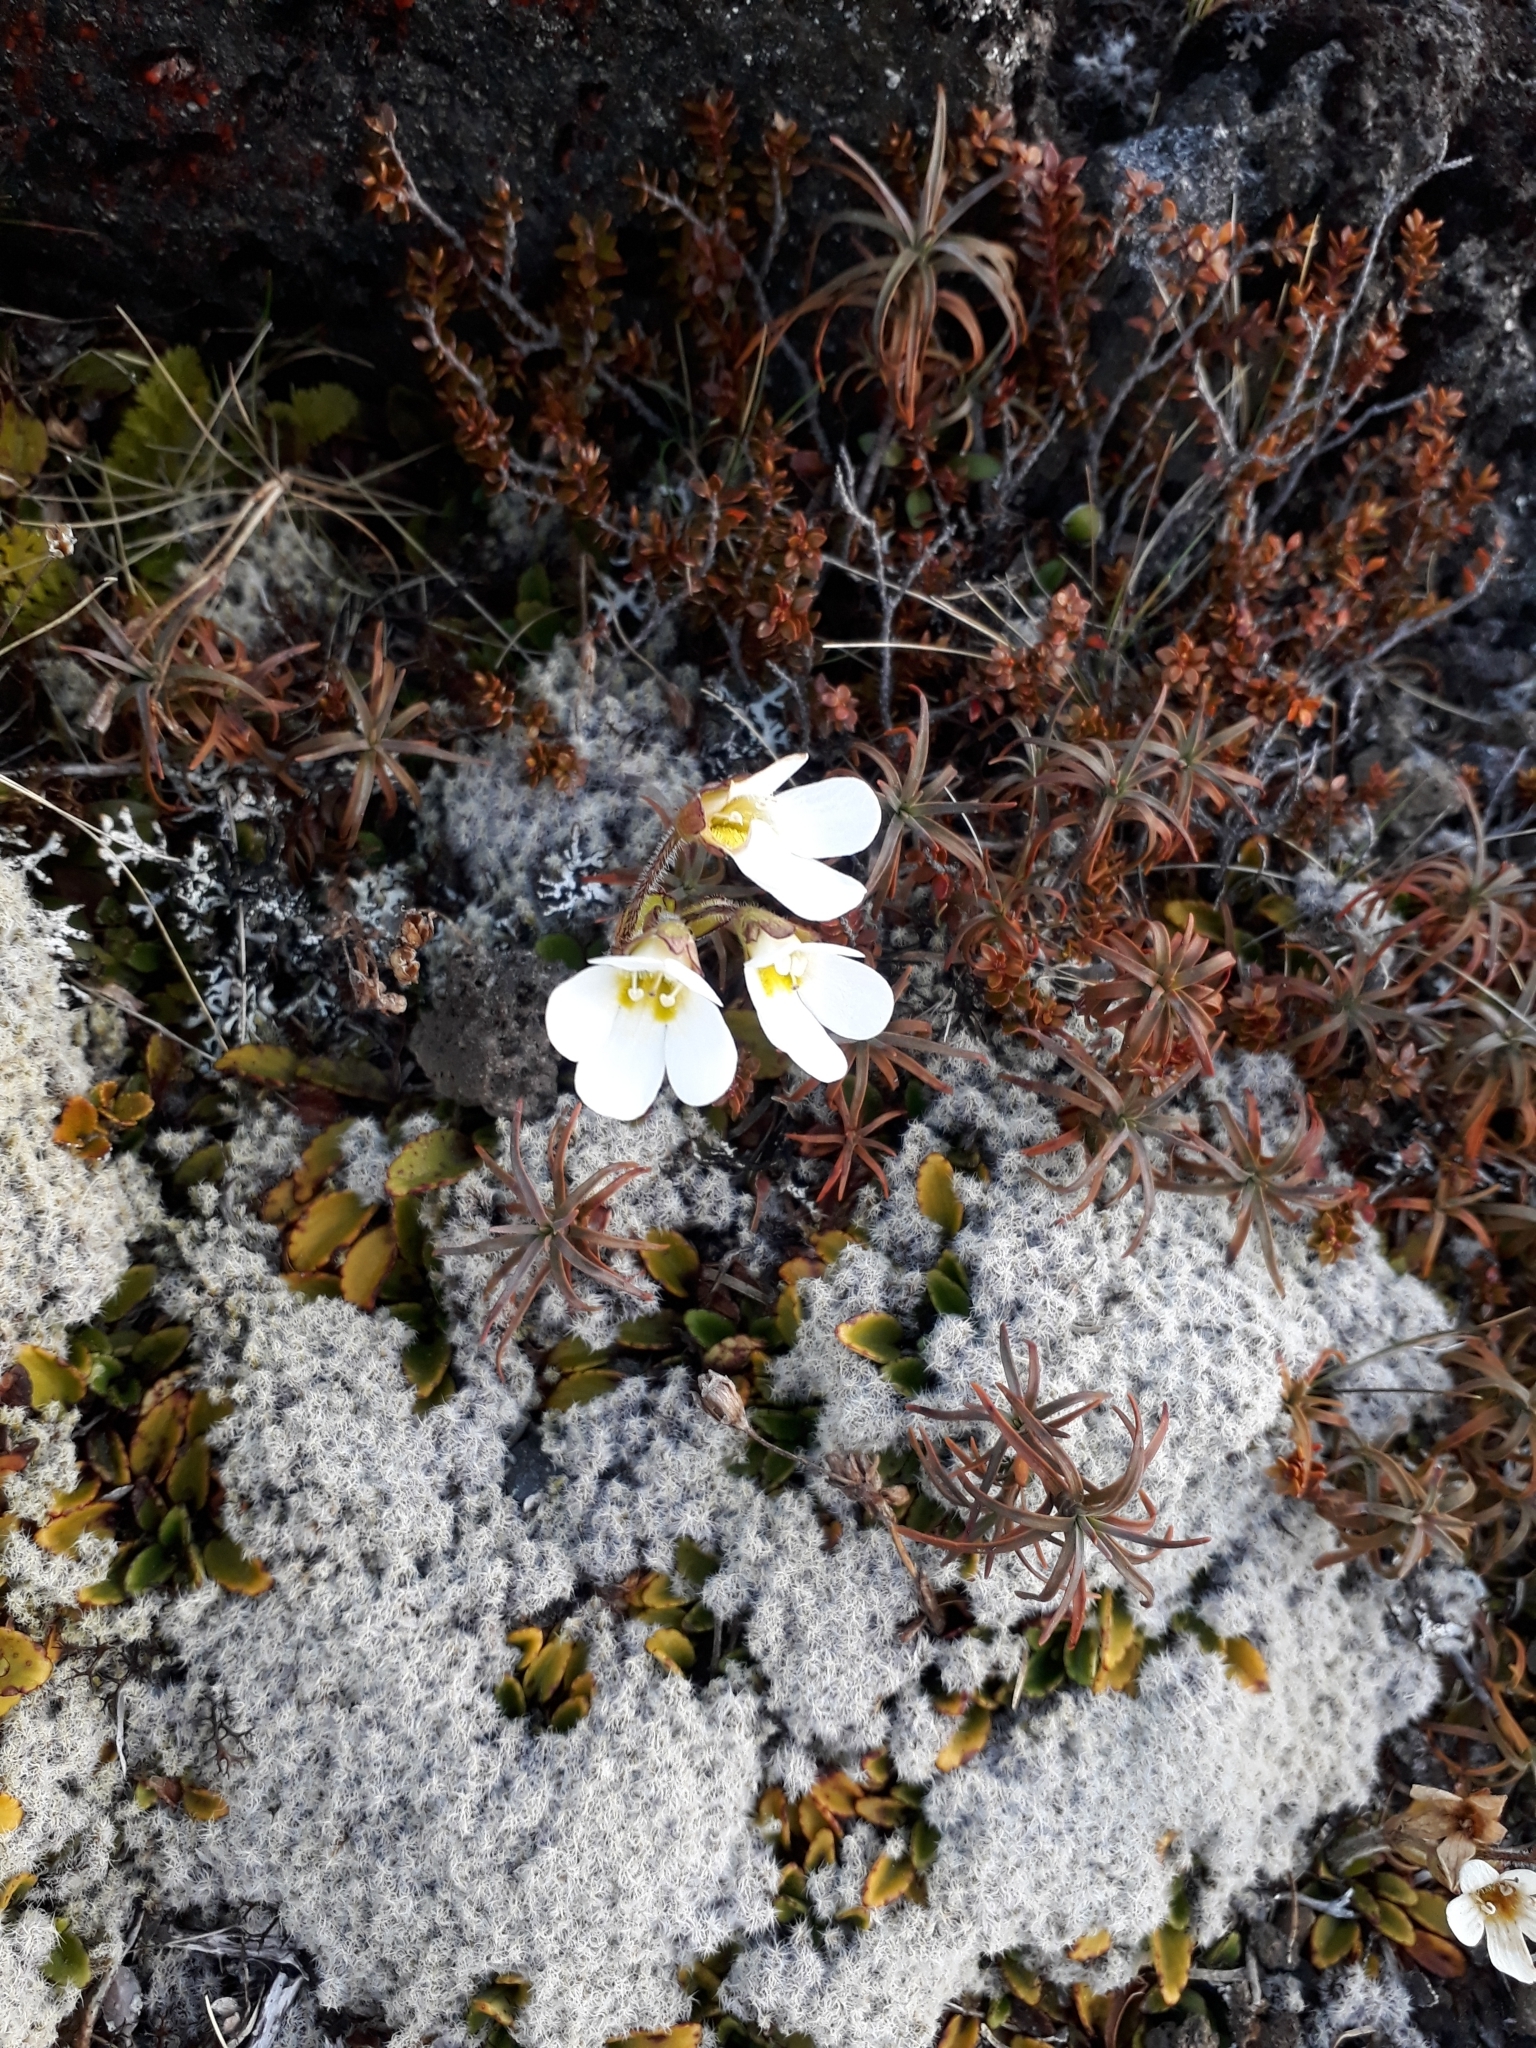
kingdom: Plantae
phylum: Tracheophyta
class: Magnoliopsida
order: Lamiales
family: Plantaginaceae
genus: Ourisia
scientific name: Ourisia vulcanica
